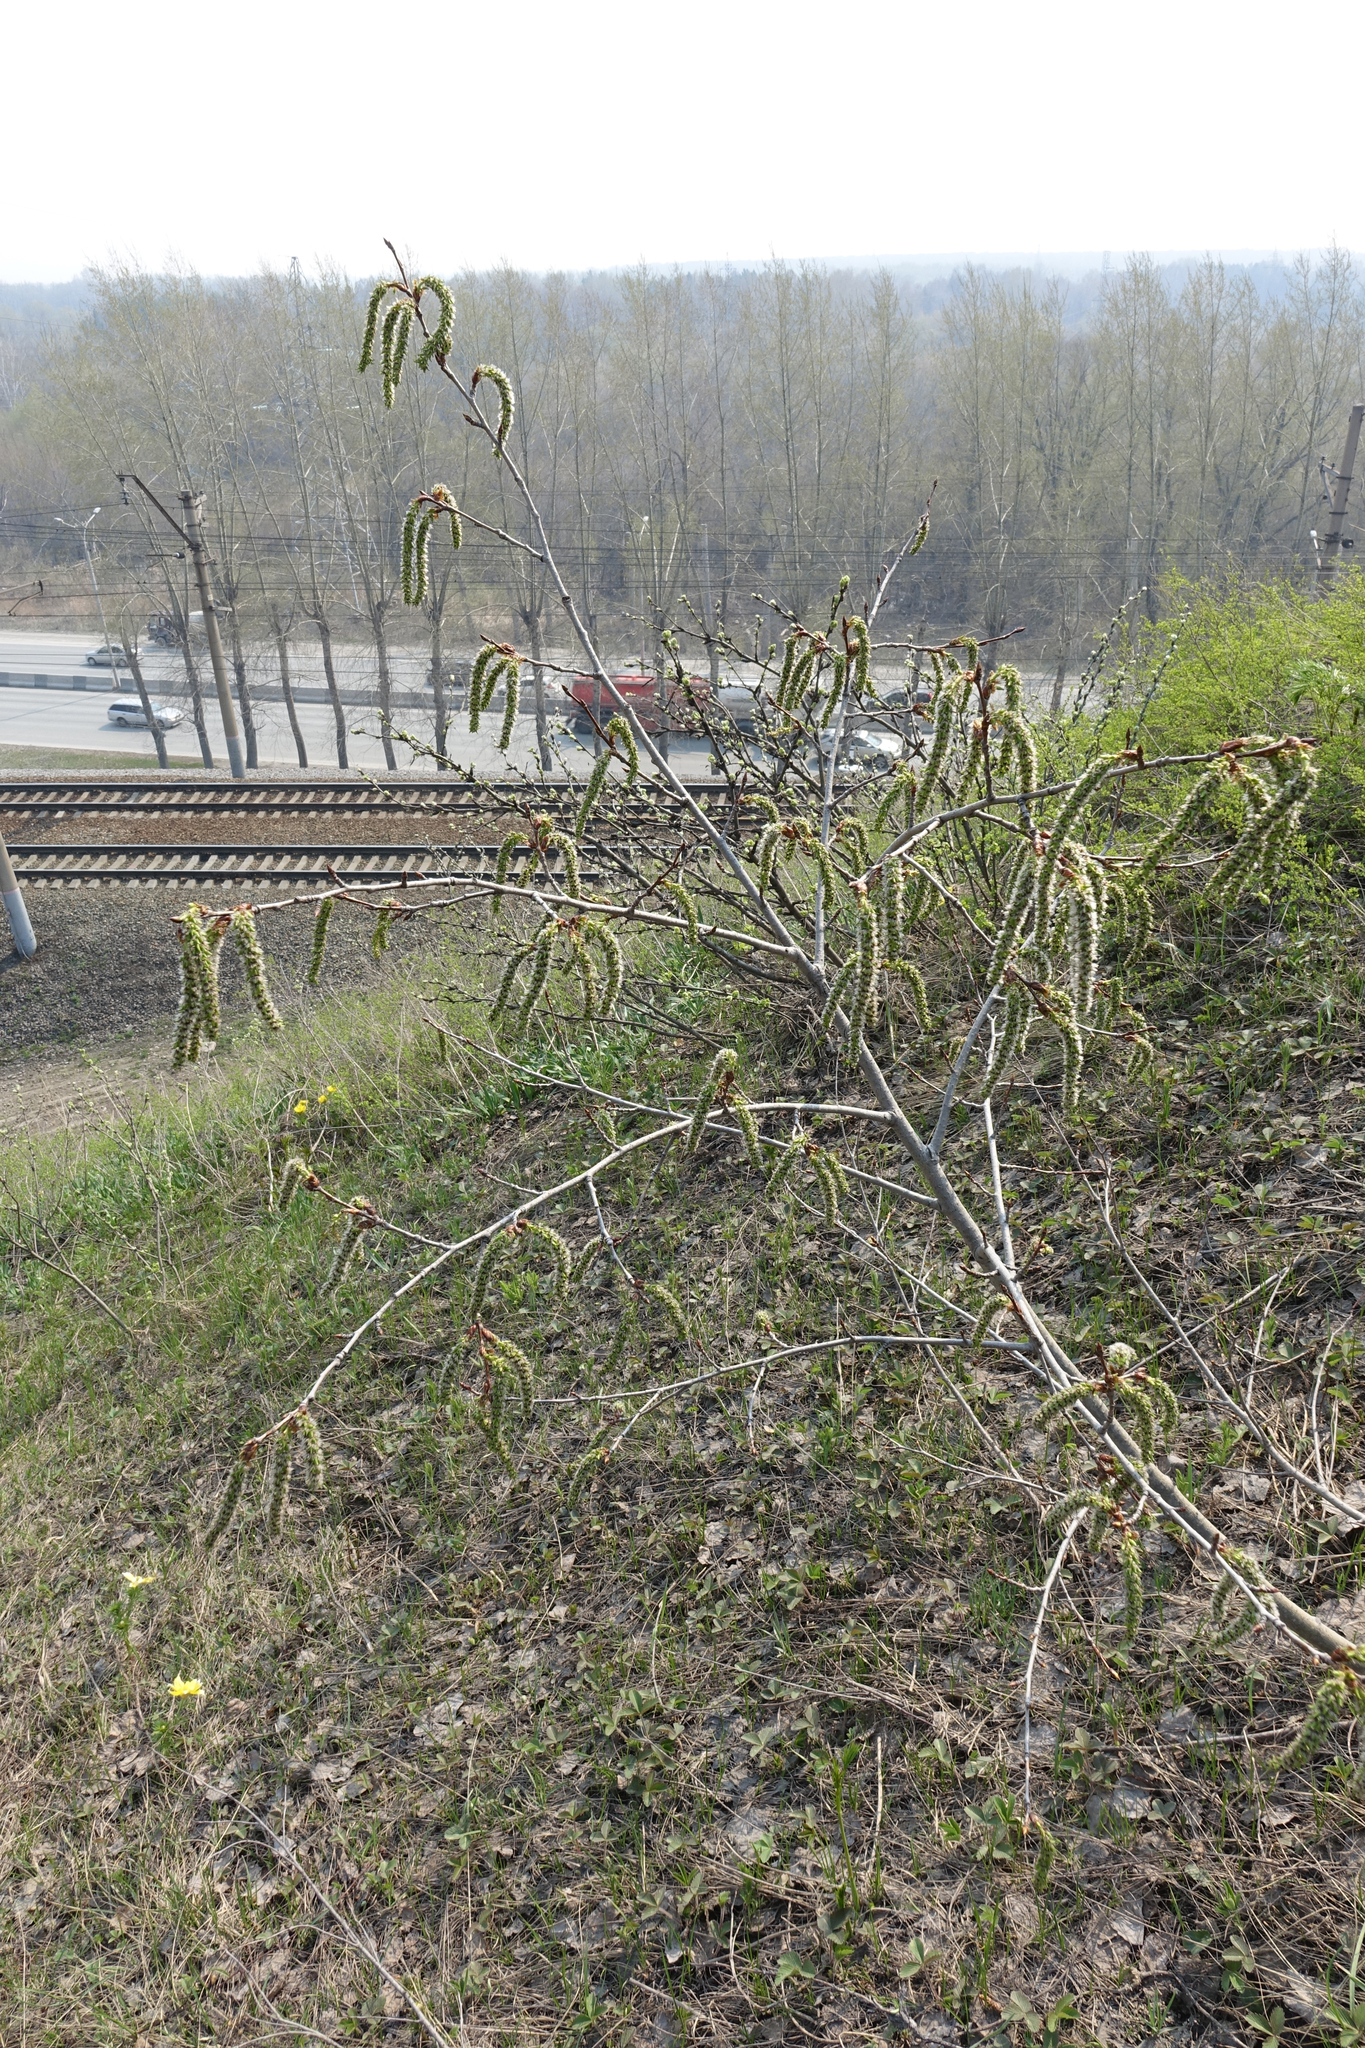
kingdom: Plantae
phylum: Tracheophyta
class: Magnoliopsida
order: Malpighiales
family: Salicaceae
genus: Populus
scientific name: Populus tremula
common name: European aspen
